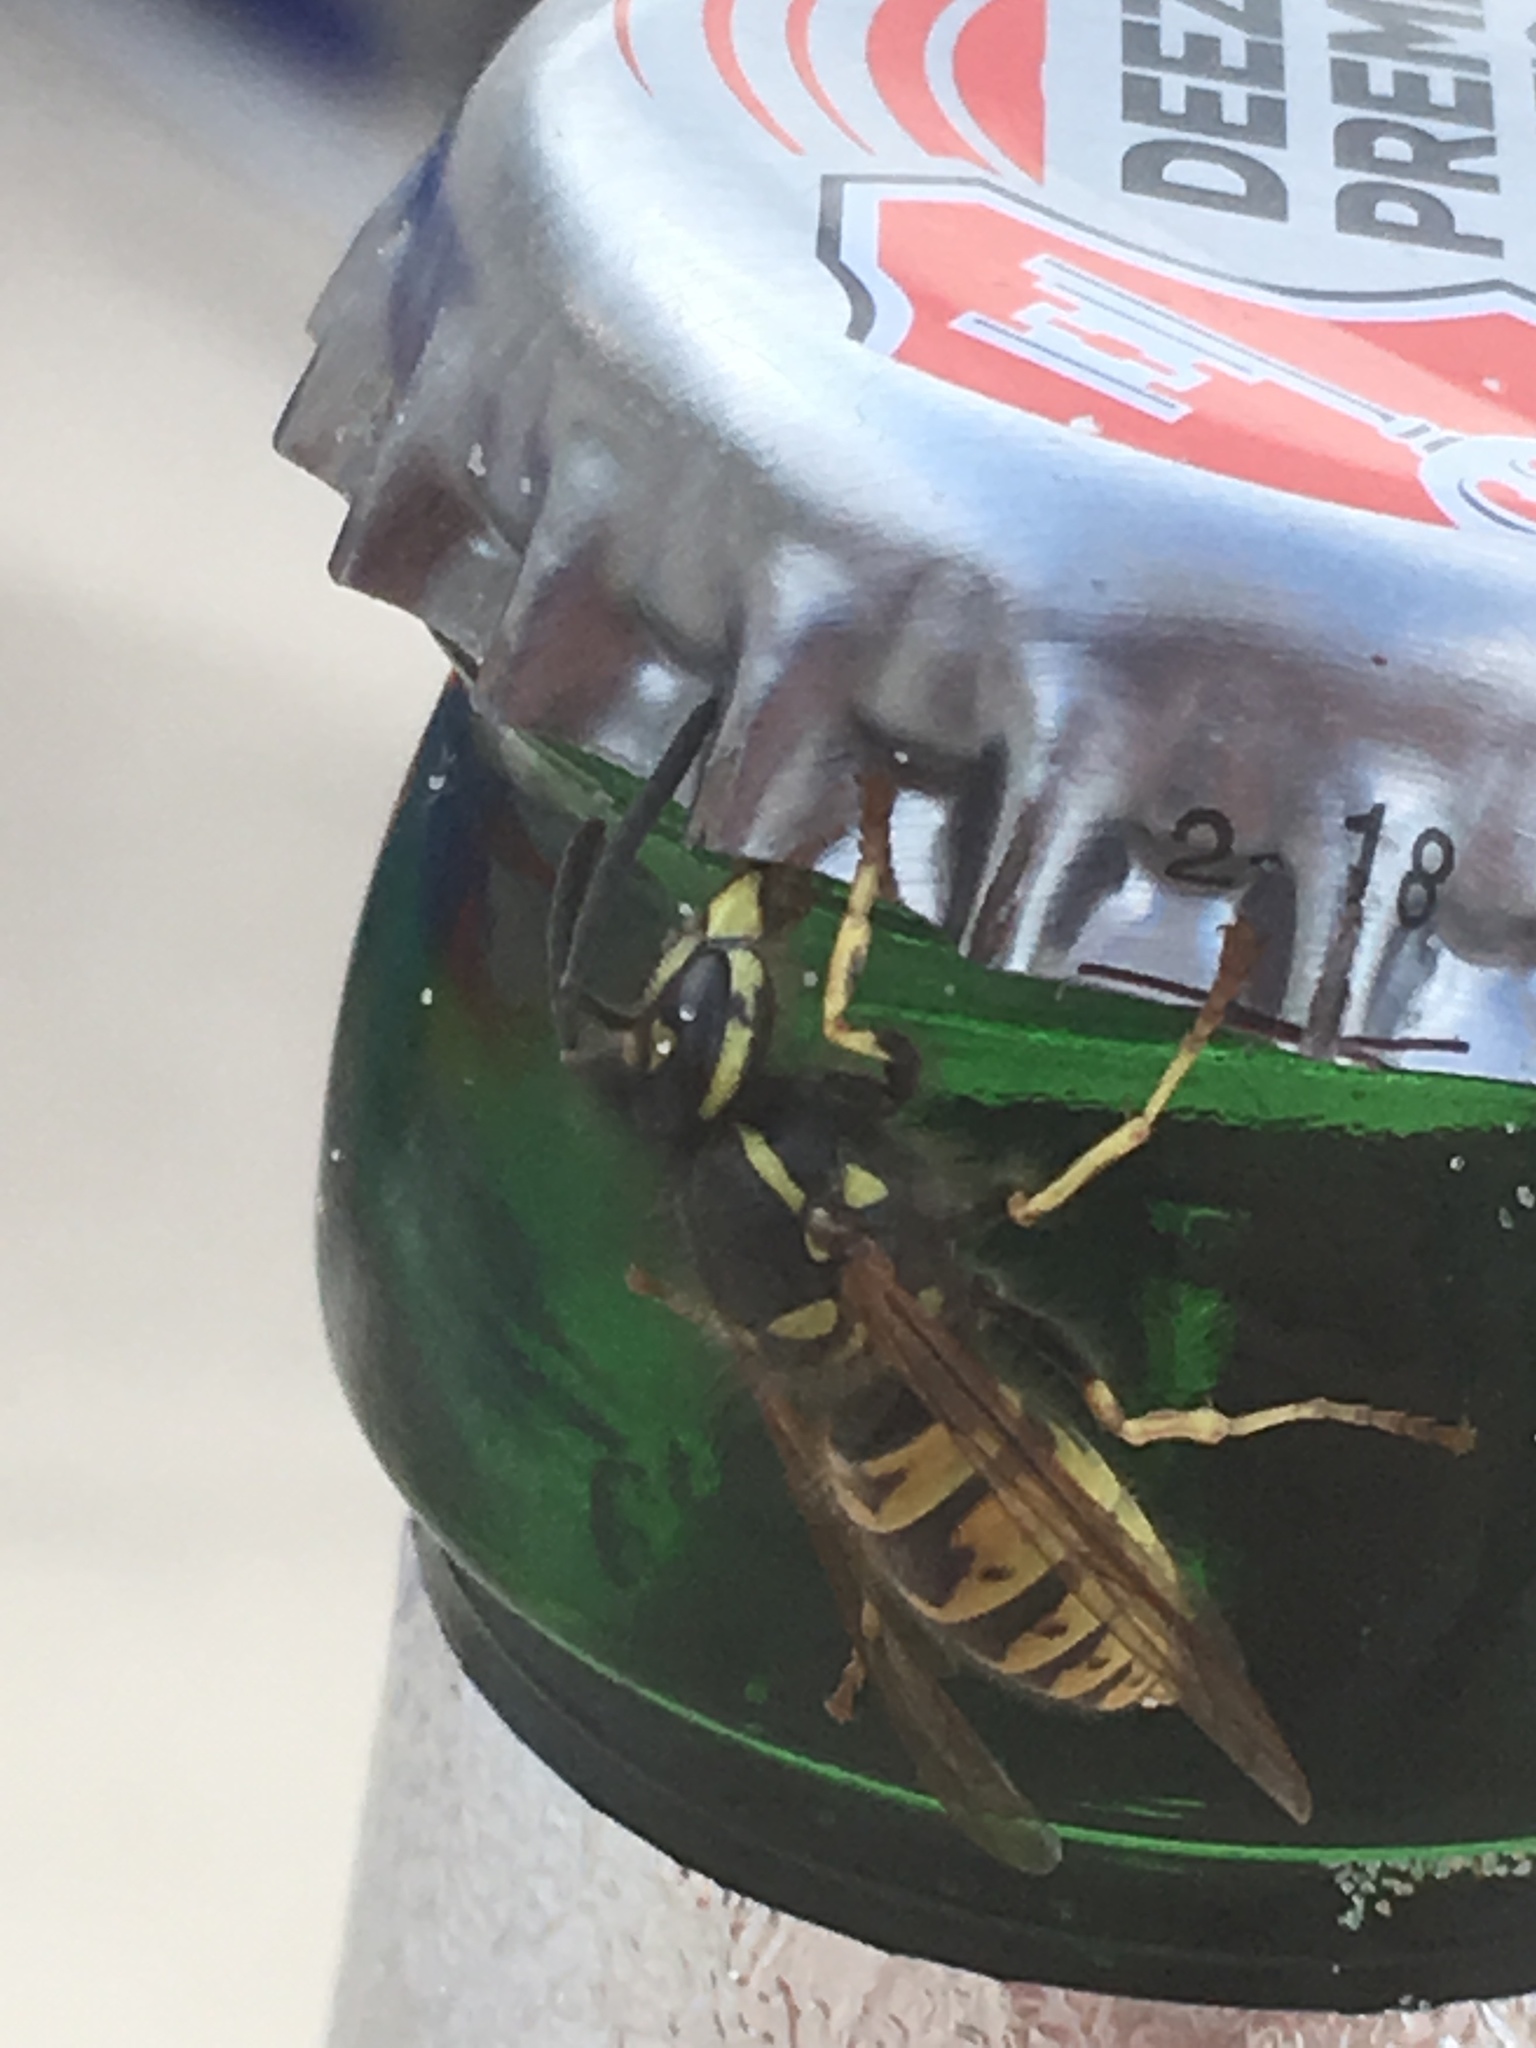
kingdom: Animalia
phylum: Arthropoda
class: Insecta
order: Hymenoptera
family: Vespidae
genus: Vespula
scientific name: Vespula vulgaris
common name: Common wasp
